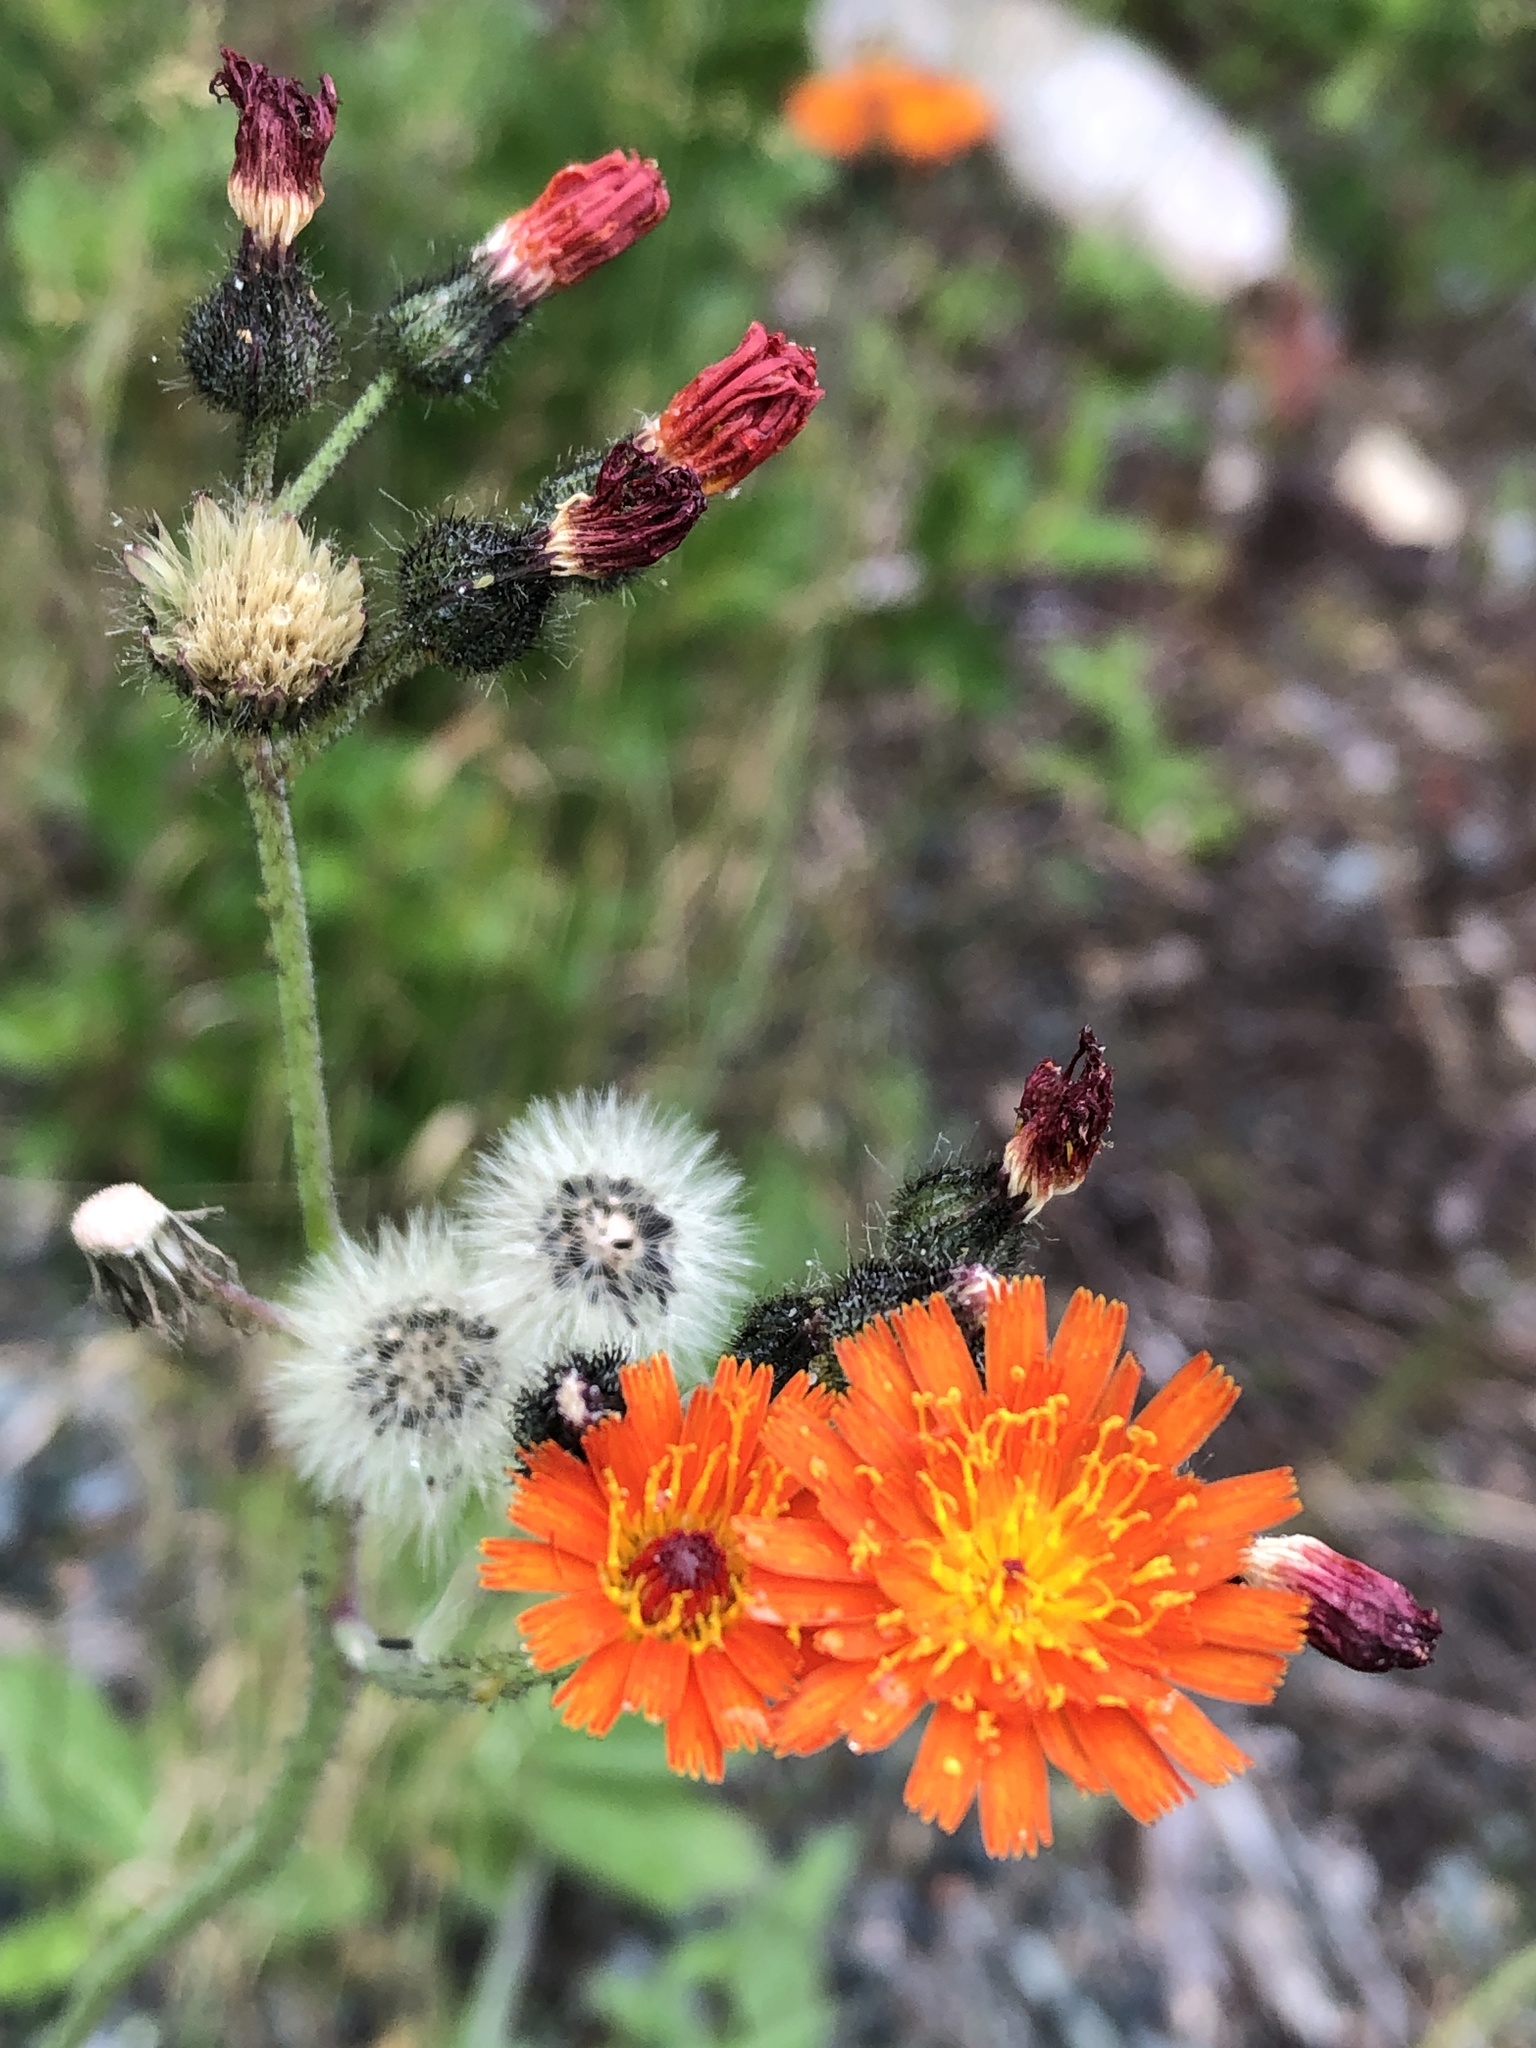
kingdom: Plantae
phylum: Tracheophyta
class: Magnoliopsida
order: Asterales
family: Asteraceae
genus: Pilosella
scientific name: Pilosella aurantiaca
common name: Fox-and-cubs
